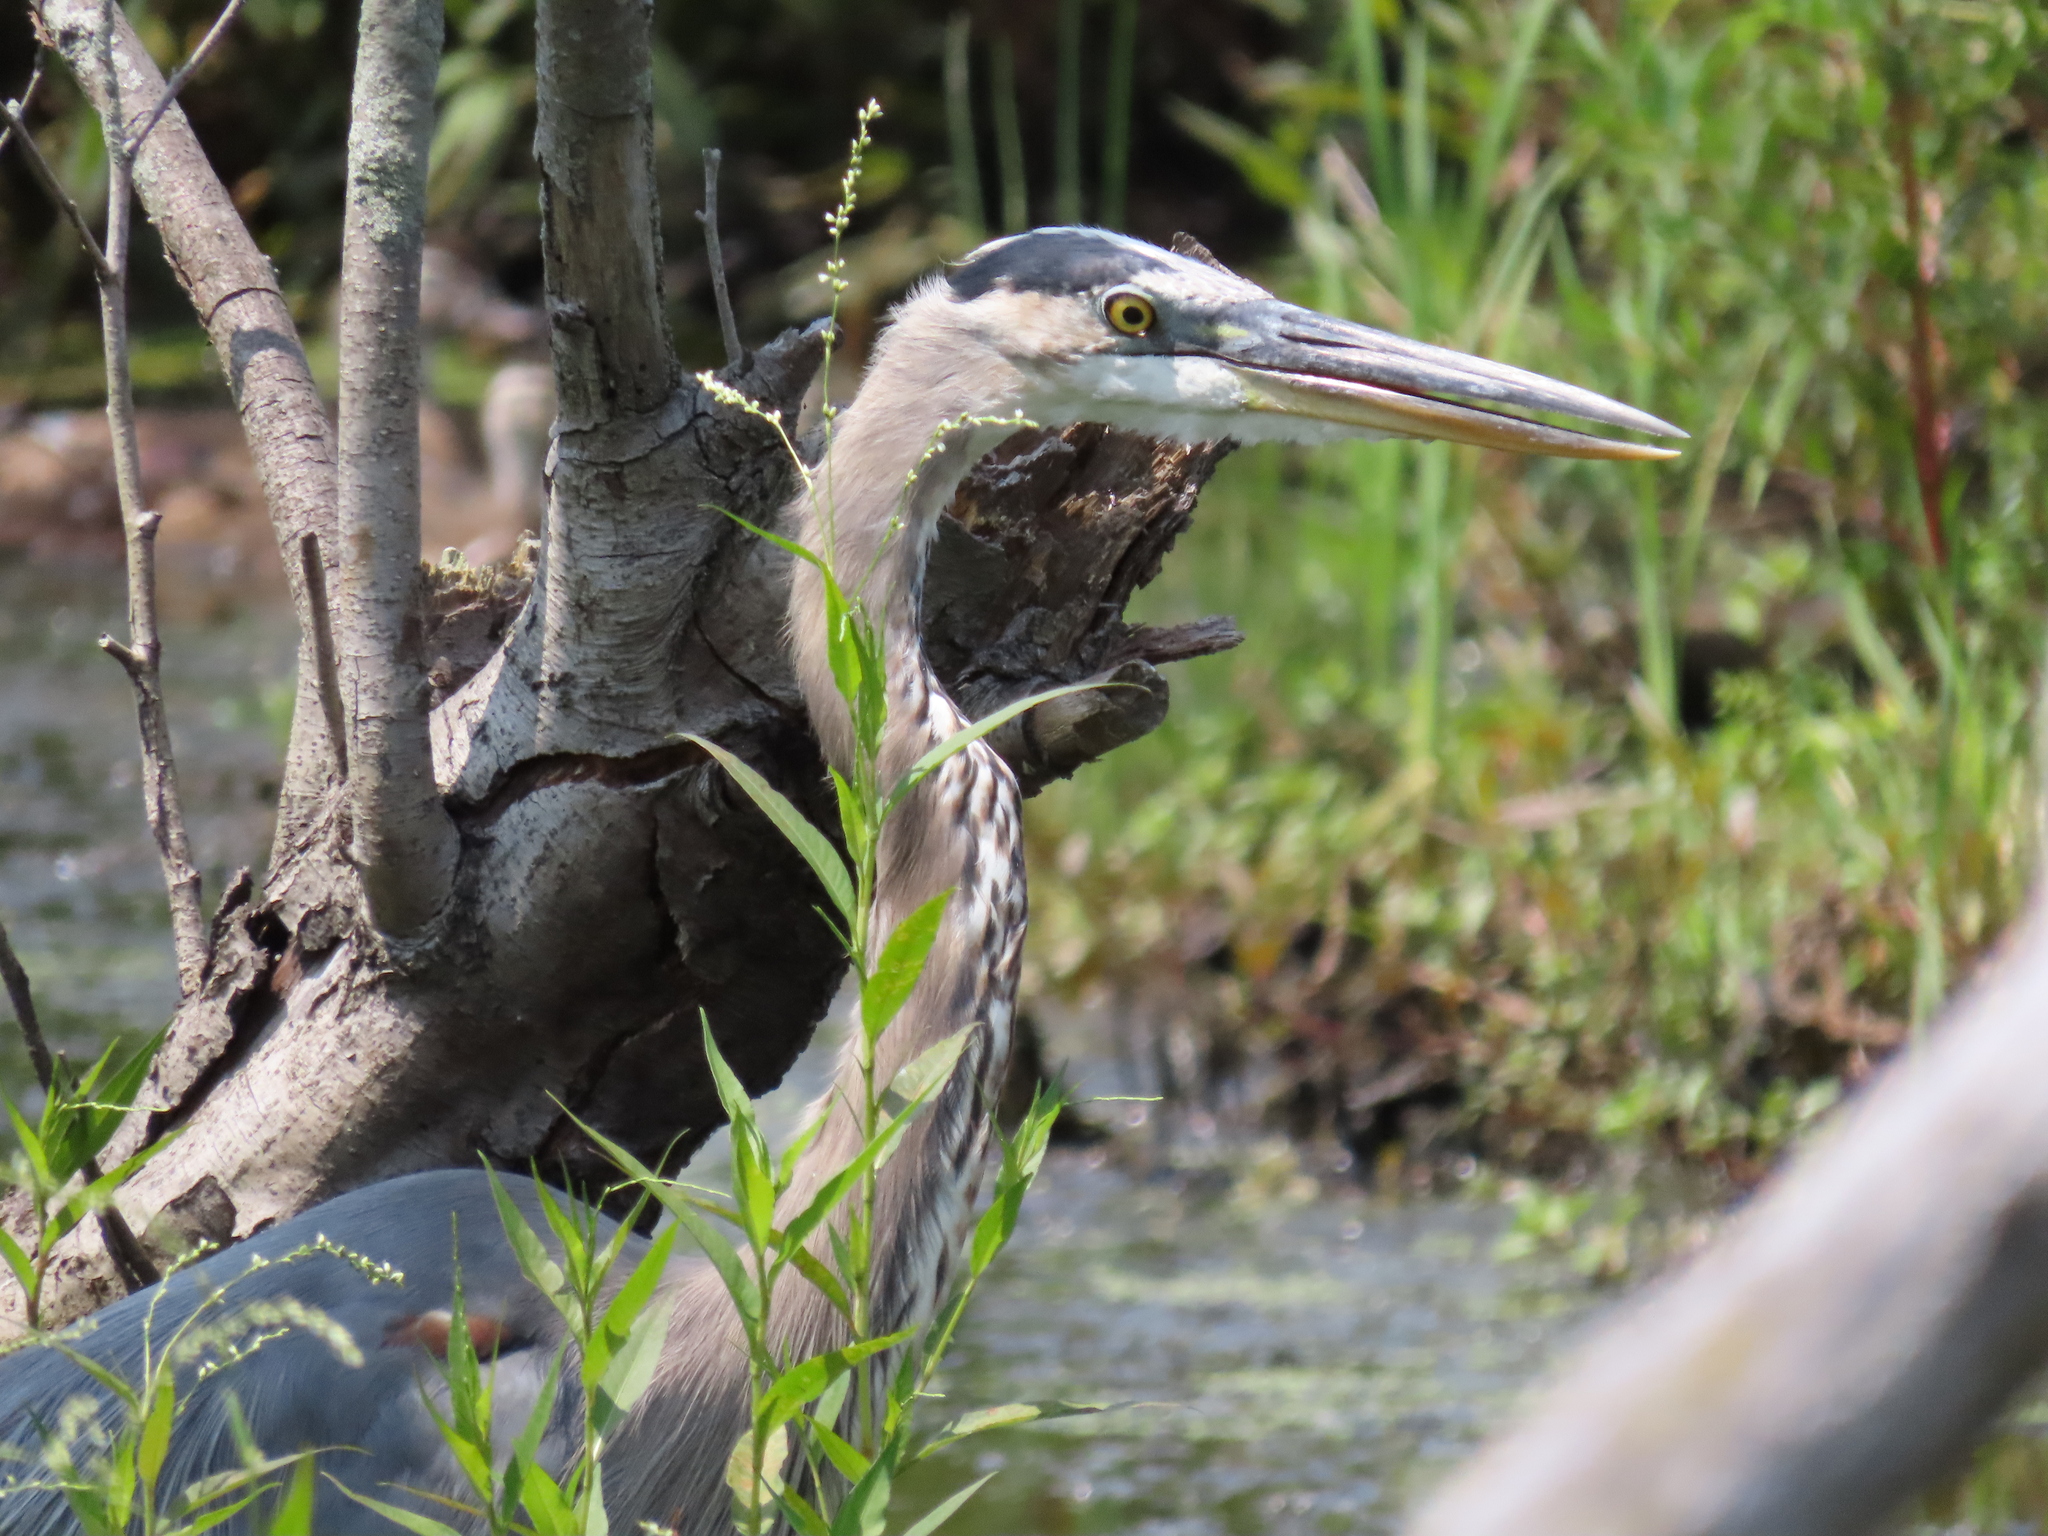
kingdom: Animalia
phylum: Chordata
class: Aves
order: Pelecaniformes
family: Ardeidae
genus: Ardea
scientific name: Ardea herodias
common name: Great blue heron
